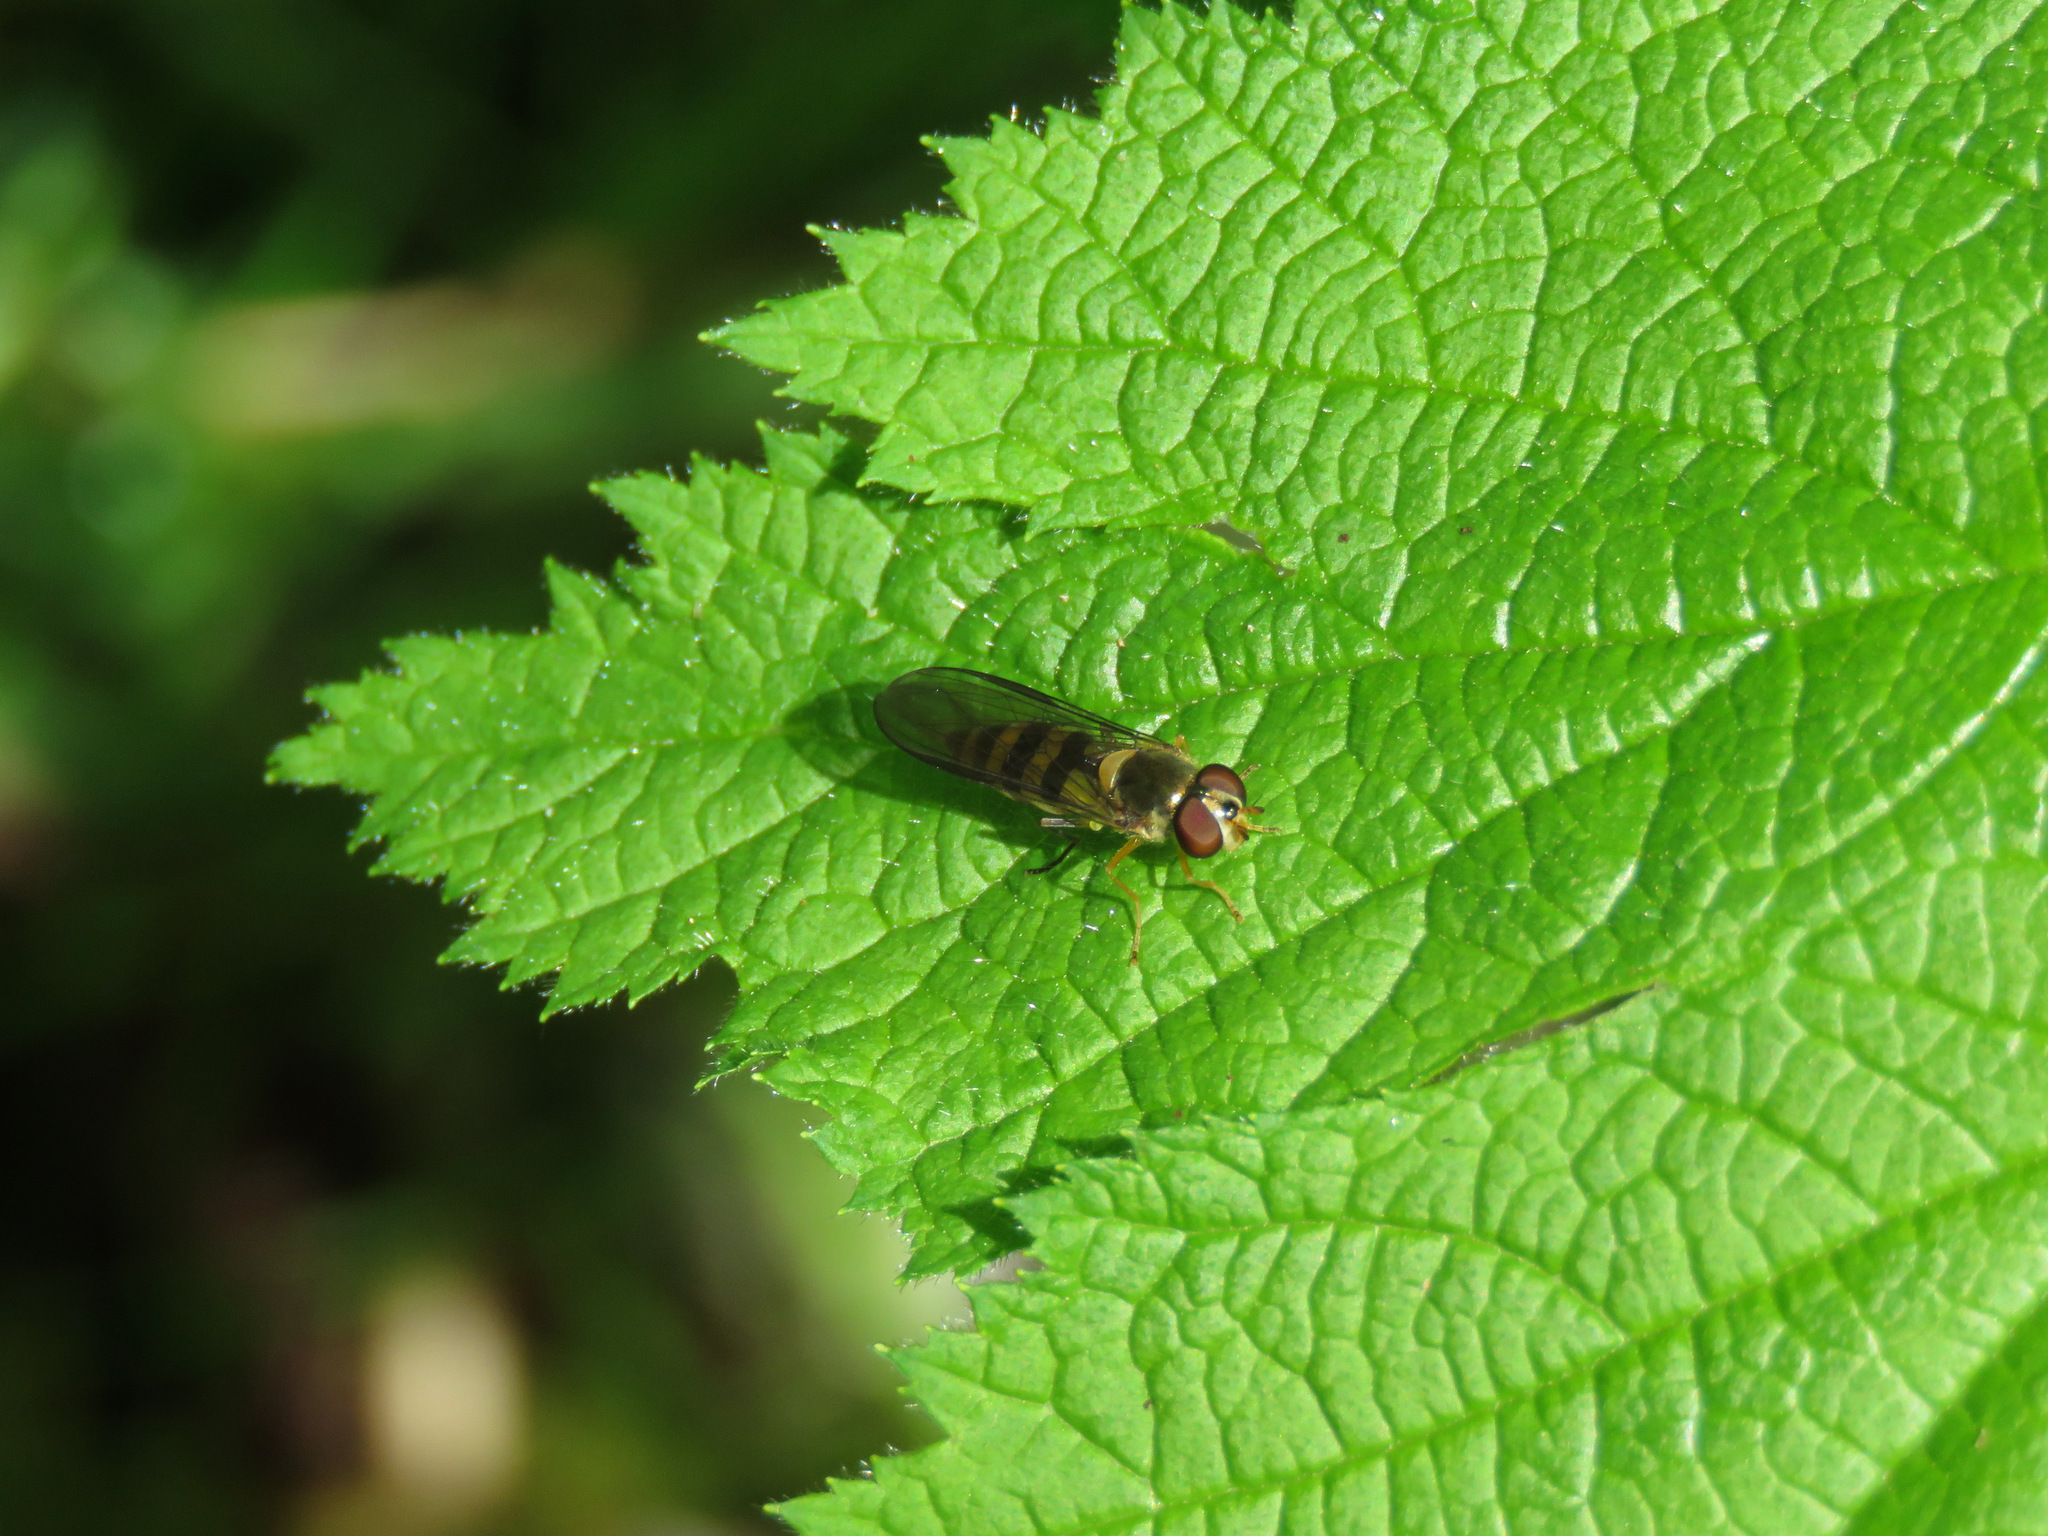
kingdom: Animalia
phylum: Arthropoda
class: Insecta
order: Diptera
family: Syrphidae
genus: Meliscaeva
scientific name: Meliscaeva cinctella
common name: American thintail fly
